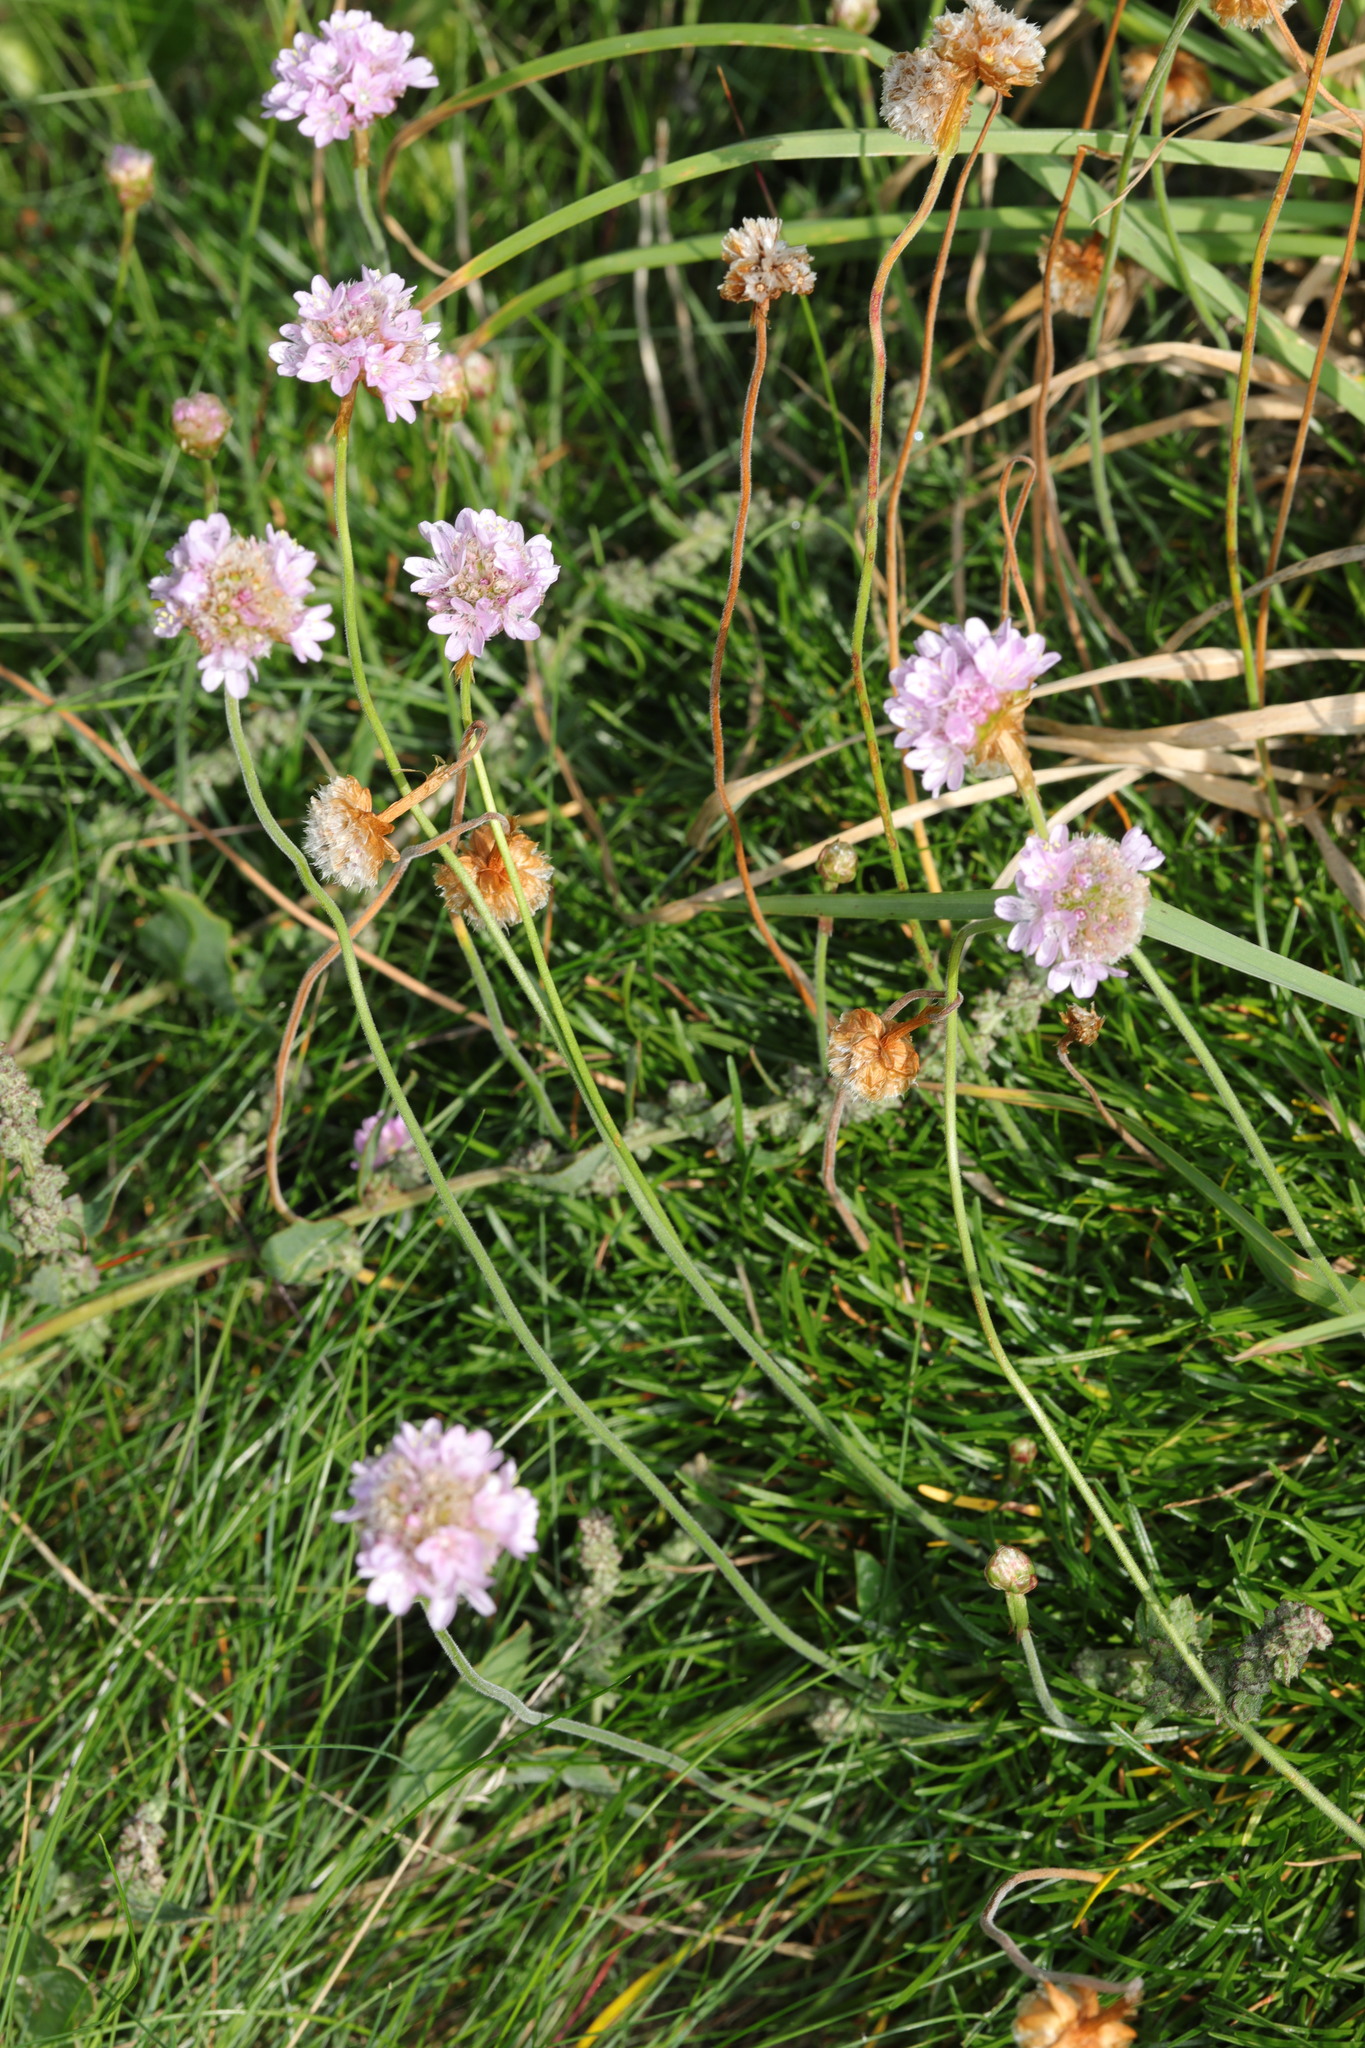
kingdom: Plantae
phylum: Tracheophyta
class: Magnoliopsida
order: Caryophyllales
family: Plumbaginaceae
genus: Armeria
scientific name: Armeria maritima
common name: Thrift
